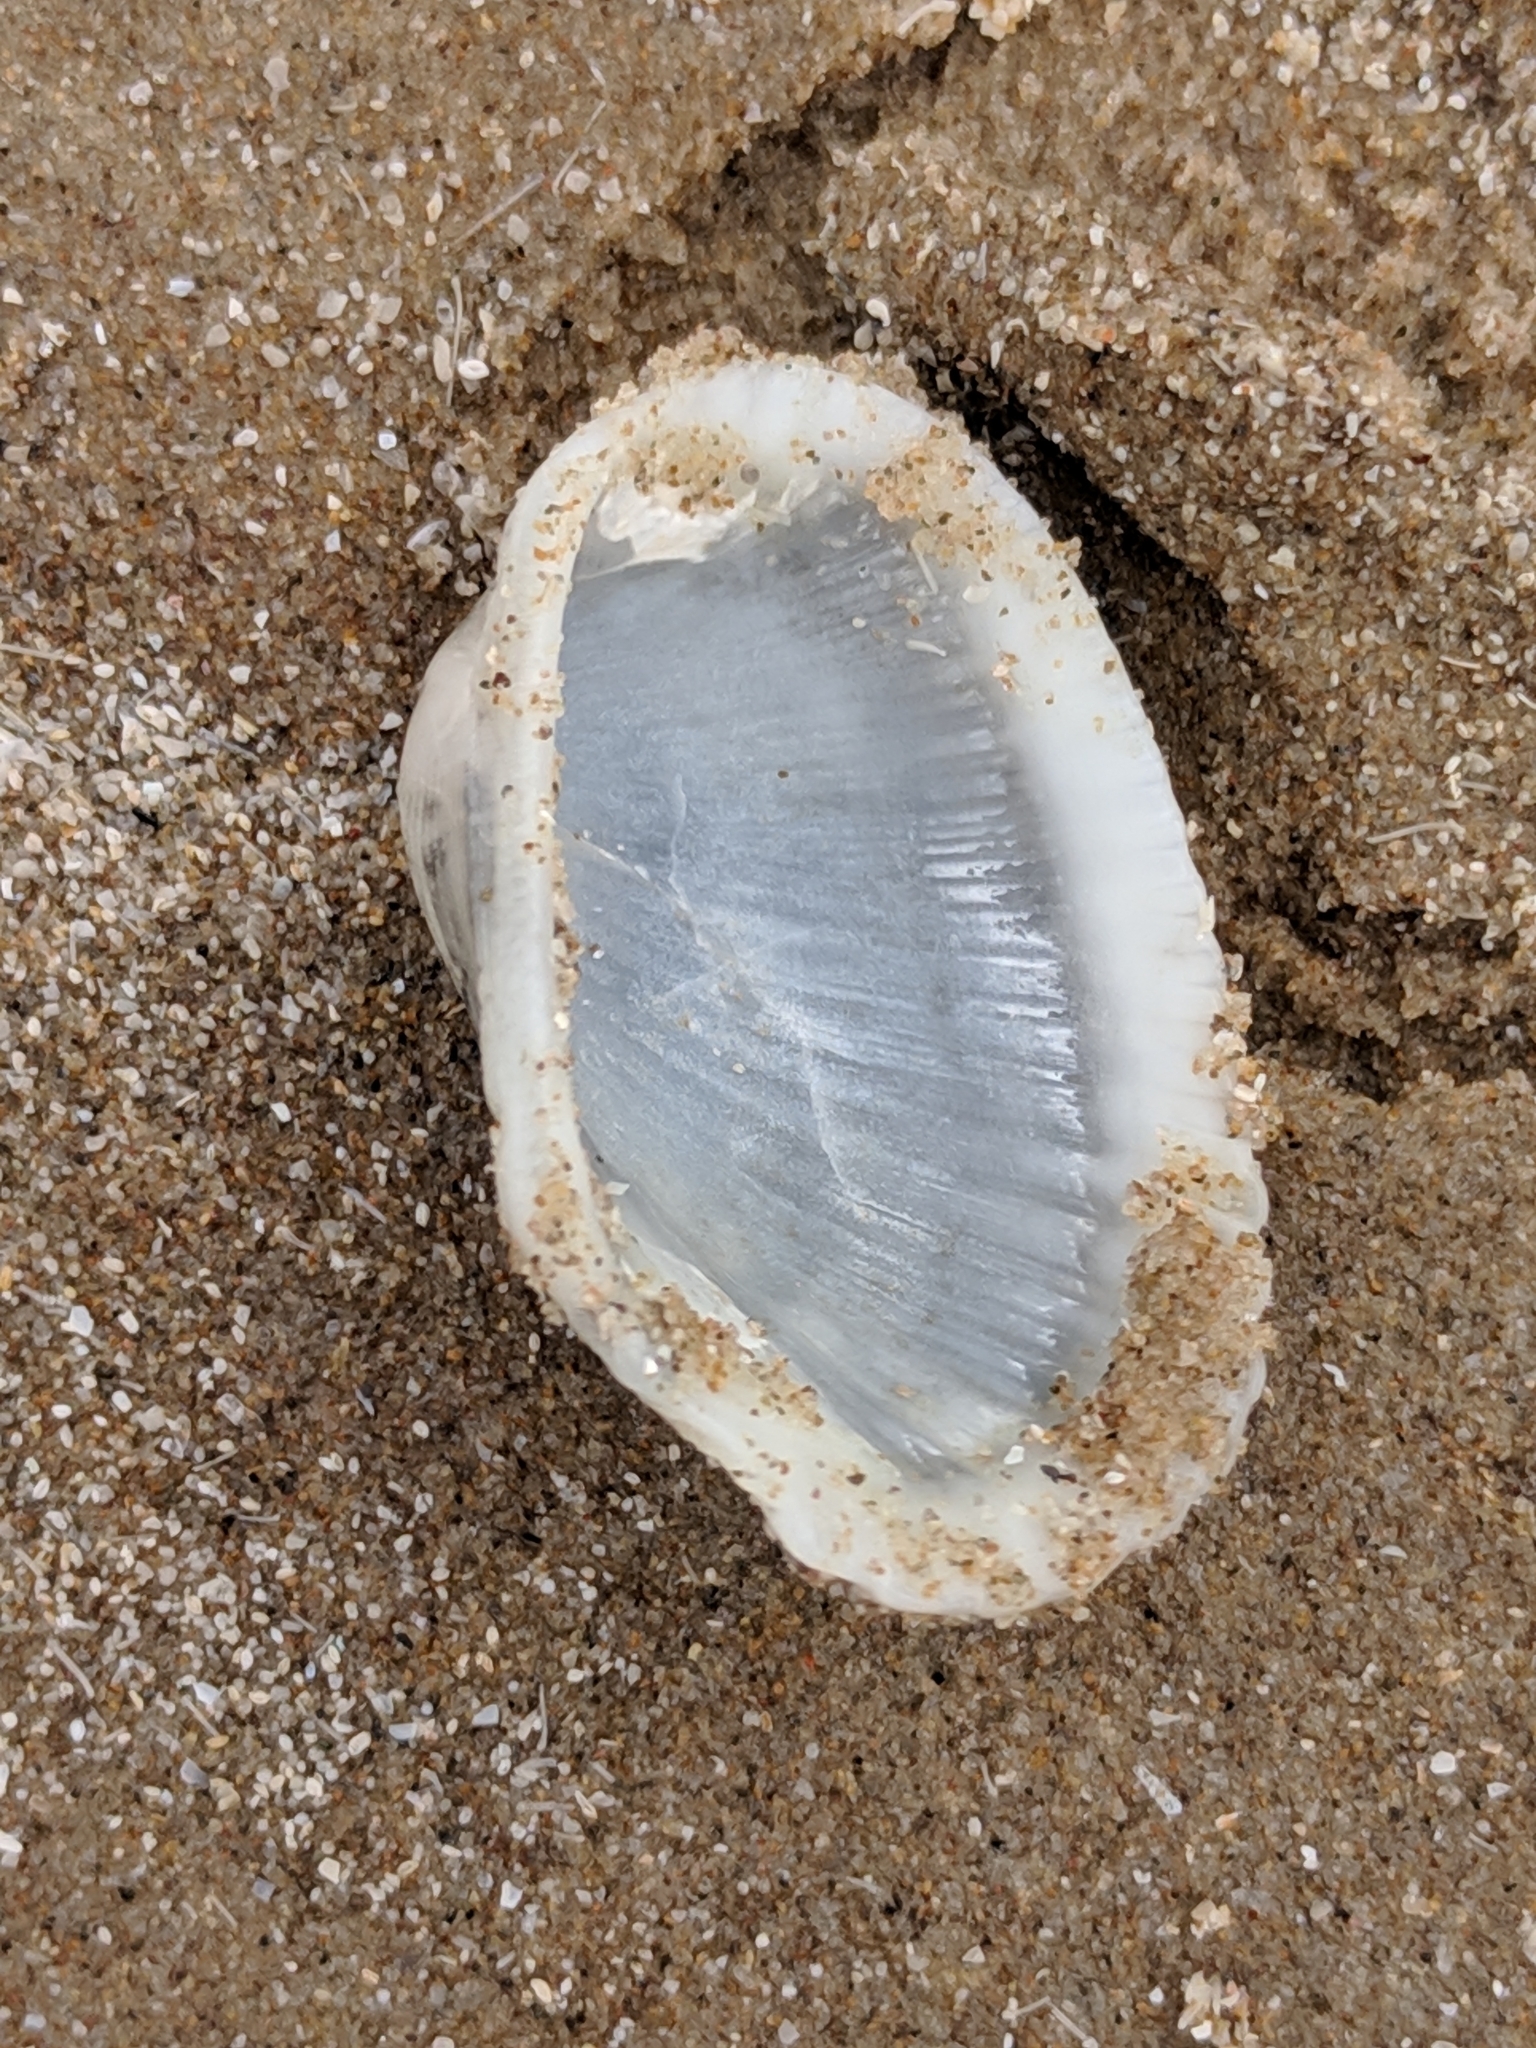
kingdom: Animalia
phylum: Mollusca
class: Bivalvia
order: Arcida
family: Arcidae
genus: Anadara
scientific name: Anadara transversa
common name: Transverse ark
